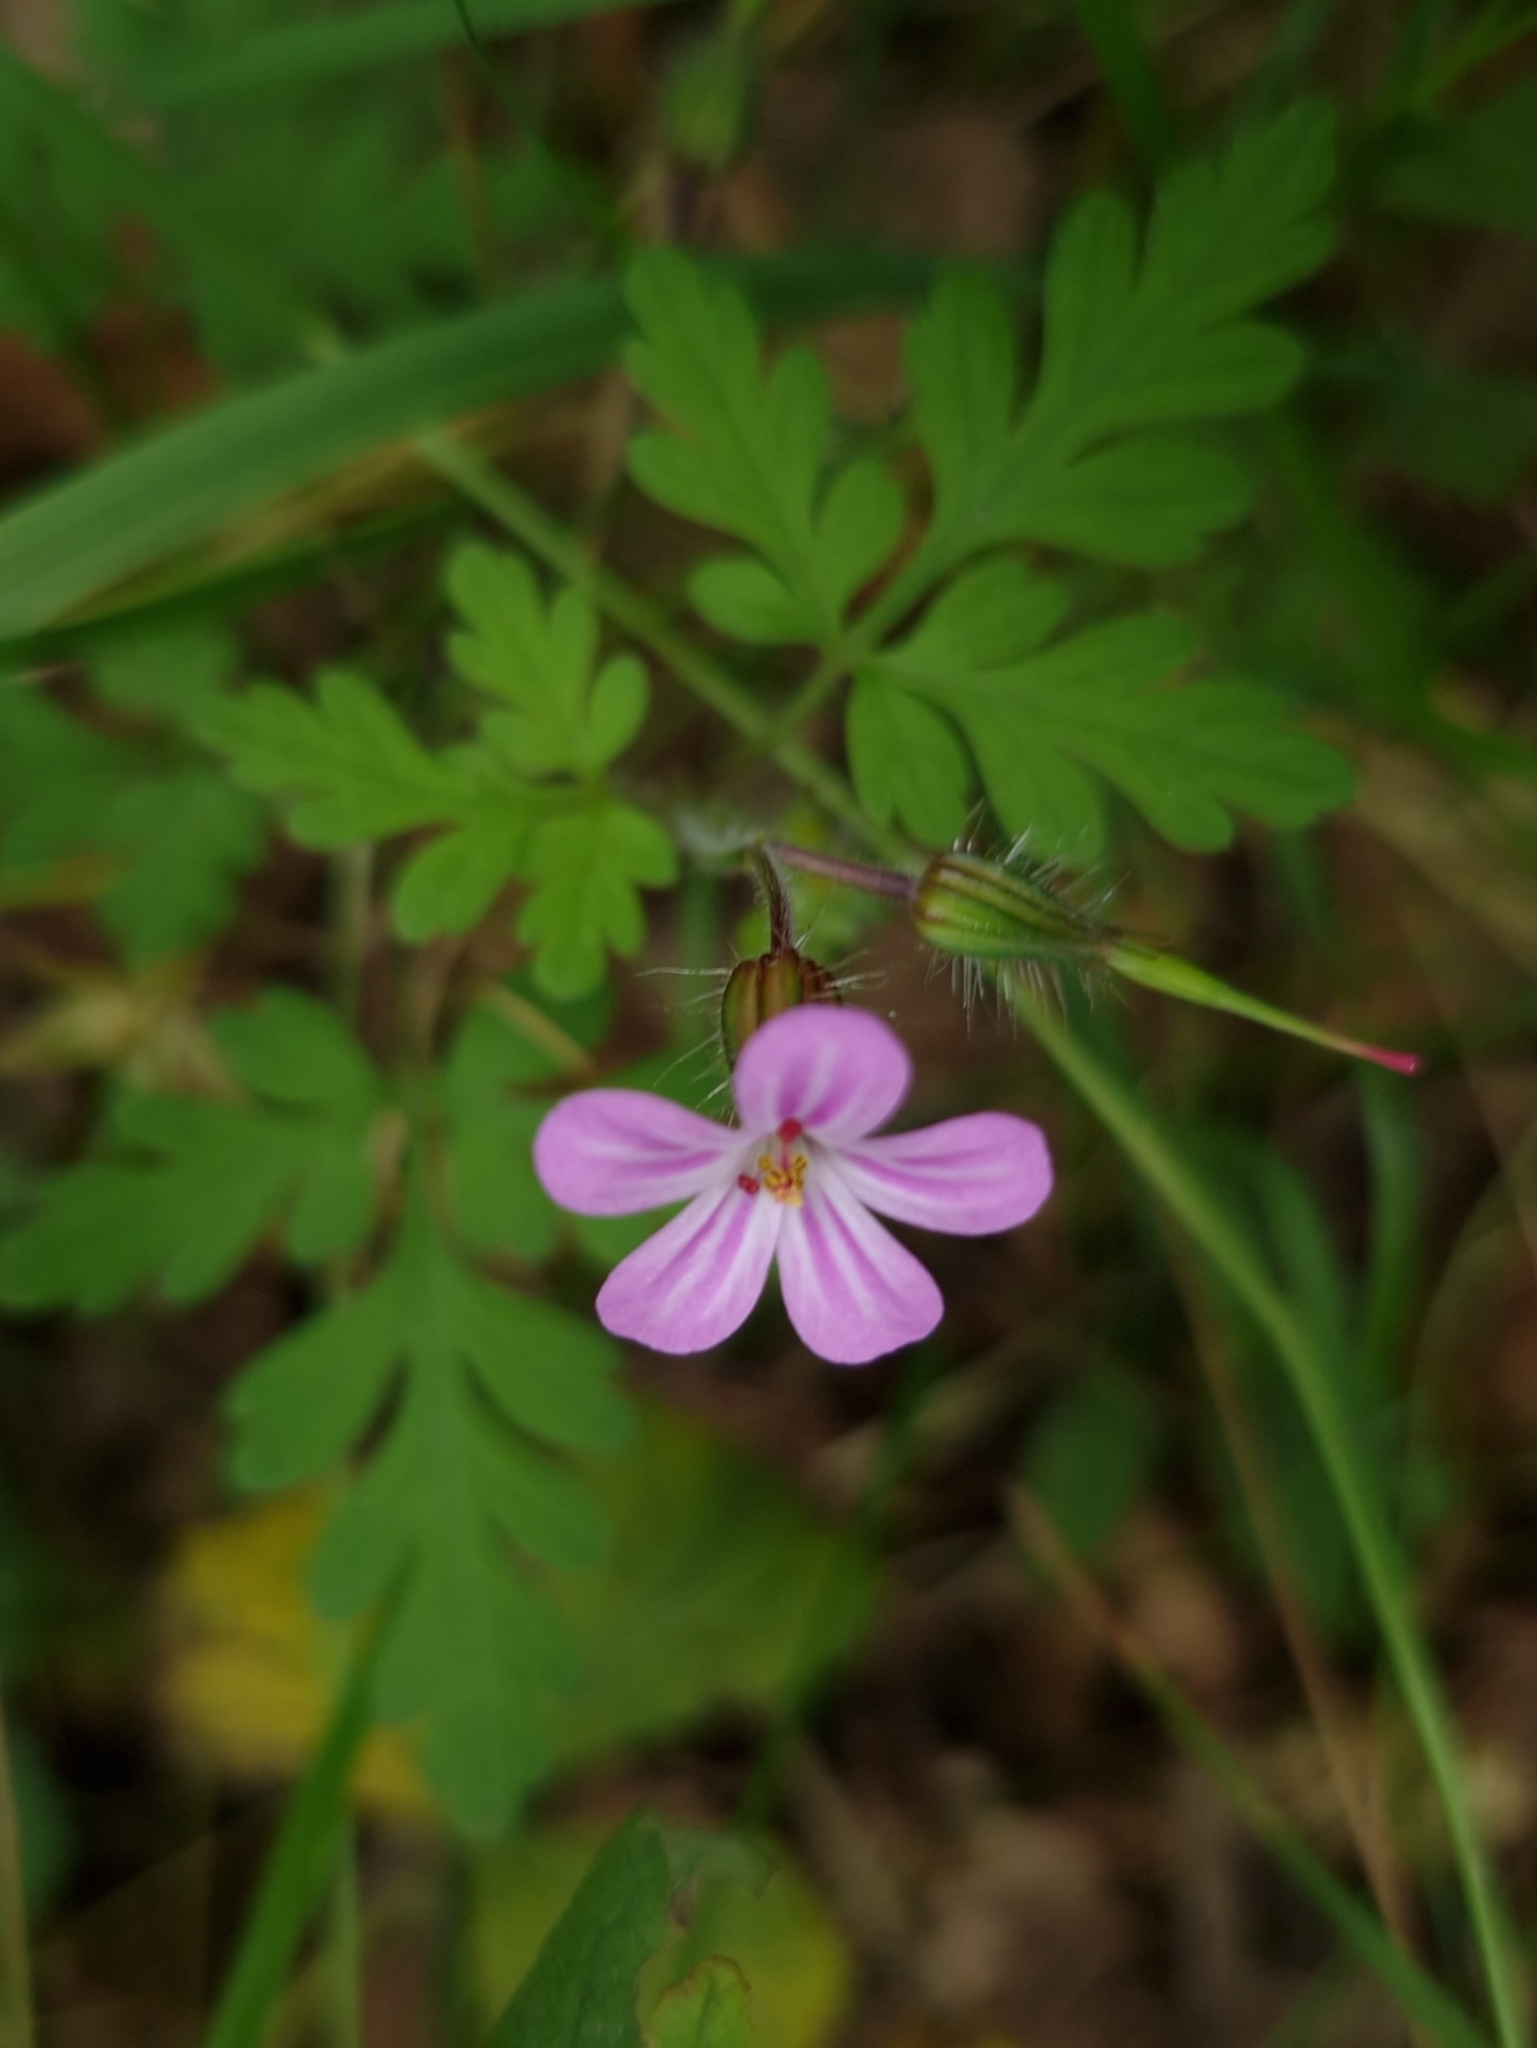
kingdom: Plantae
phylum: Tracheophyta
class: Magnoliopsida
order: Geraniales
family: Geraniaceae
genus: Geranium
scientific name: Geranium robertianum
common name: Herb-robert
